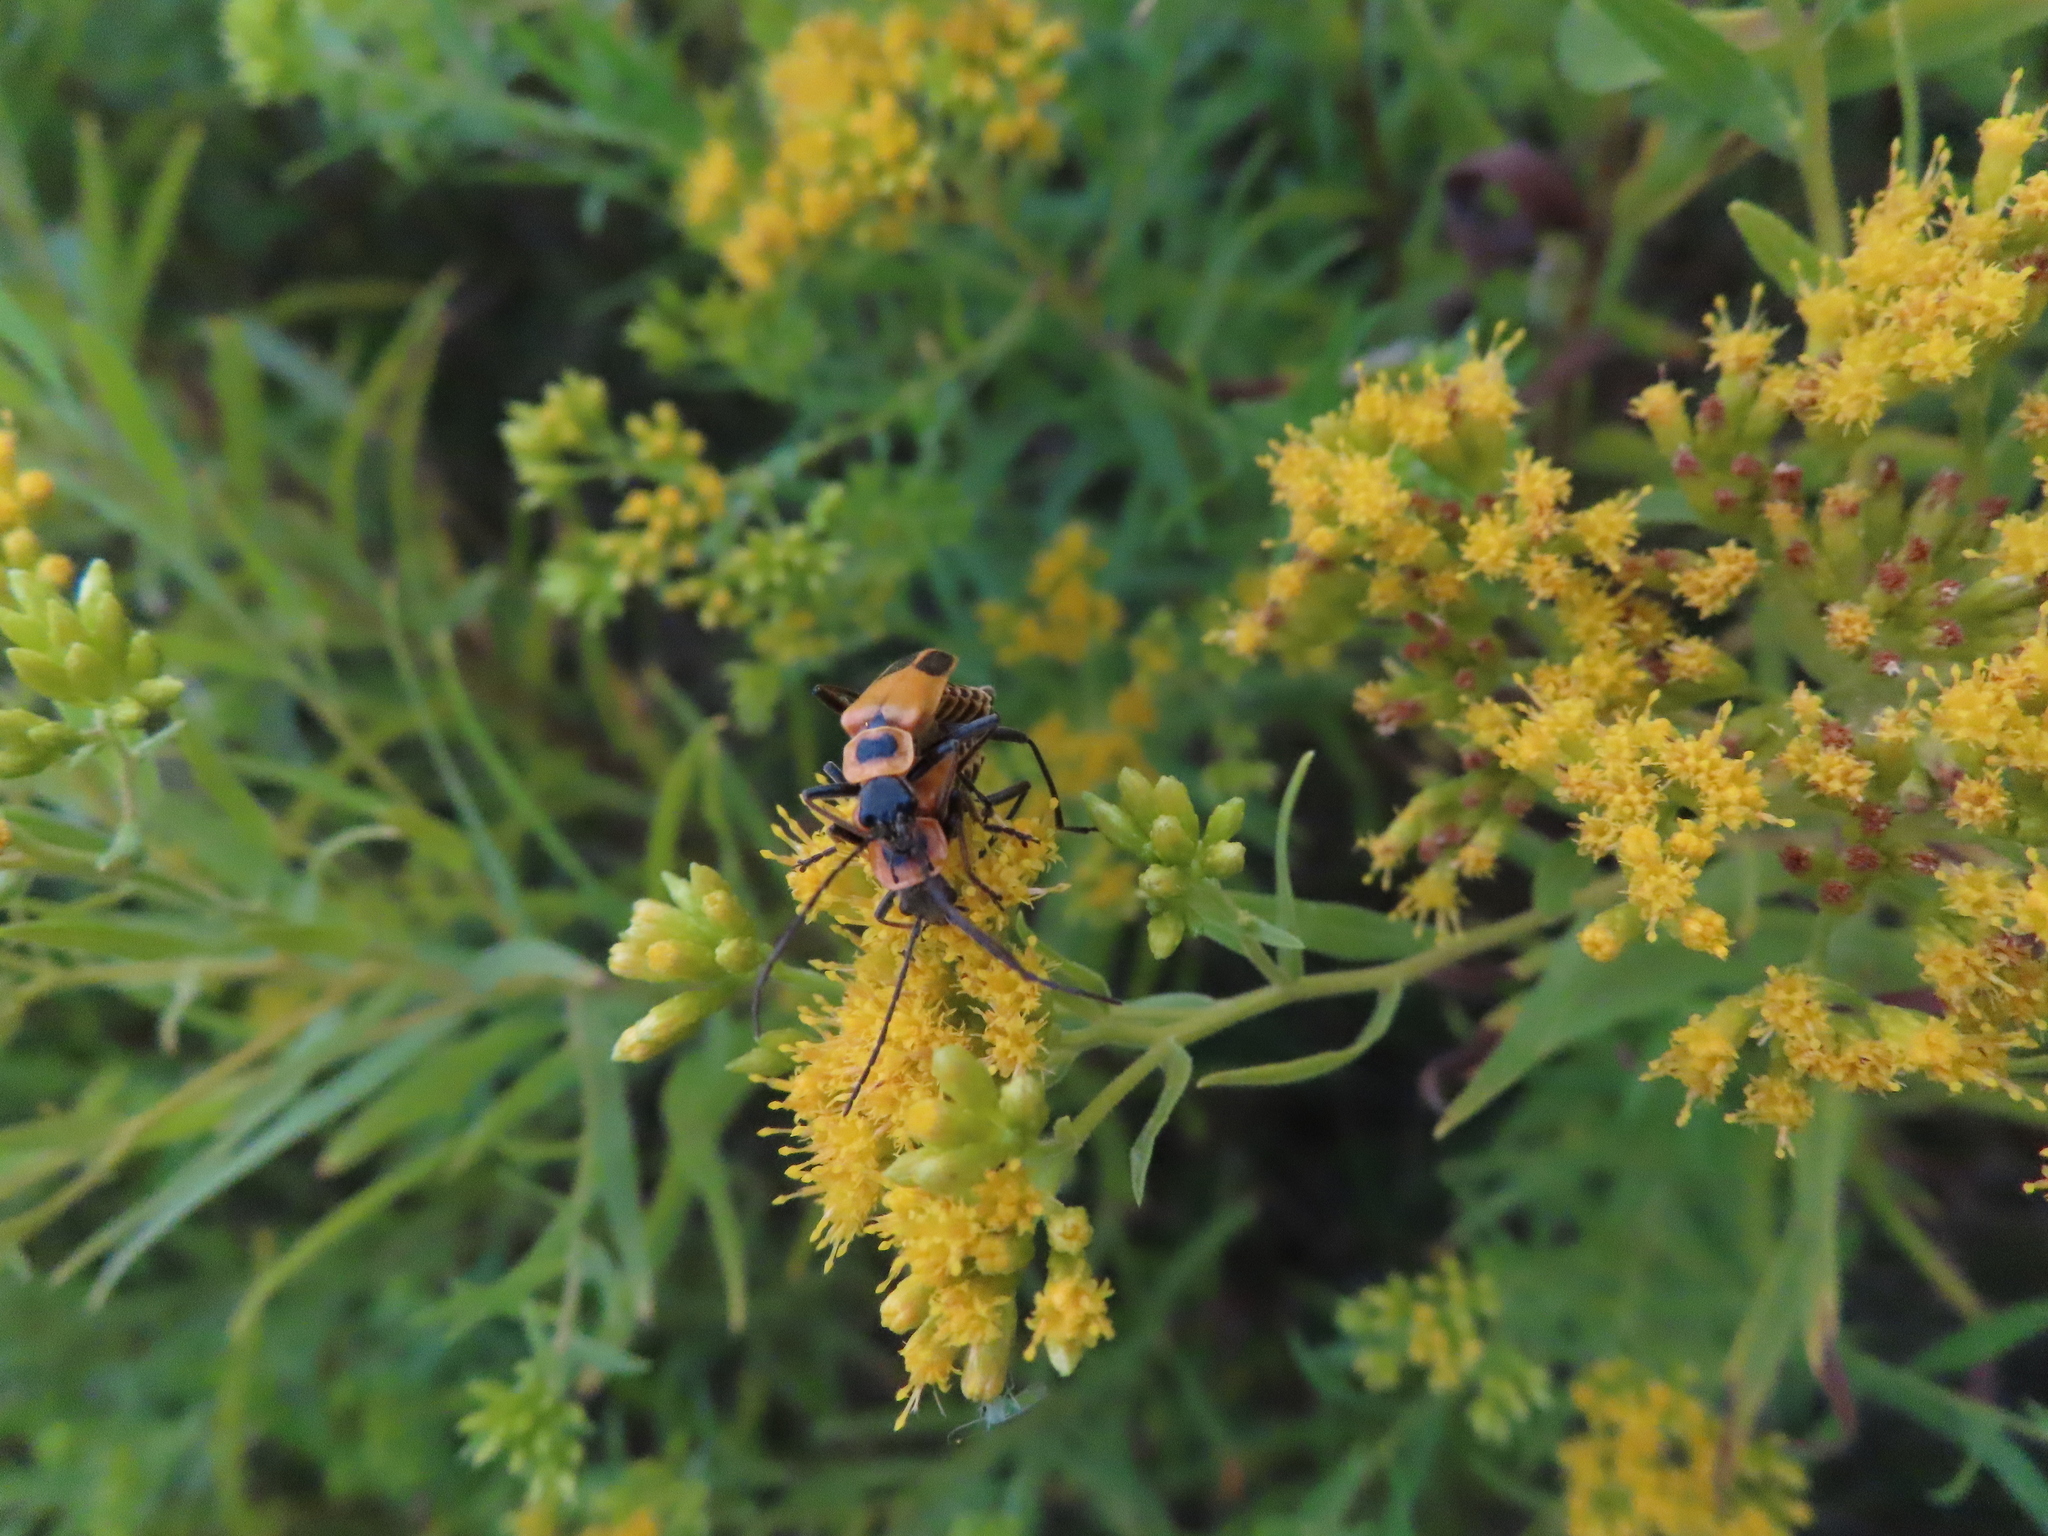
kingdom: Animalia
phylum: Arthropoda
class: Insecta
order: Coleoptera
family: Cantharidae
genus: Chauliognathus
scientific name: Chauliognathus pensylvanicus
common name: Goldenrod soldier beetle
